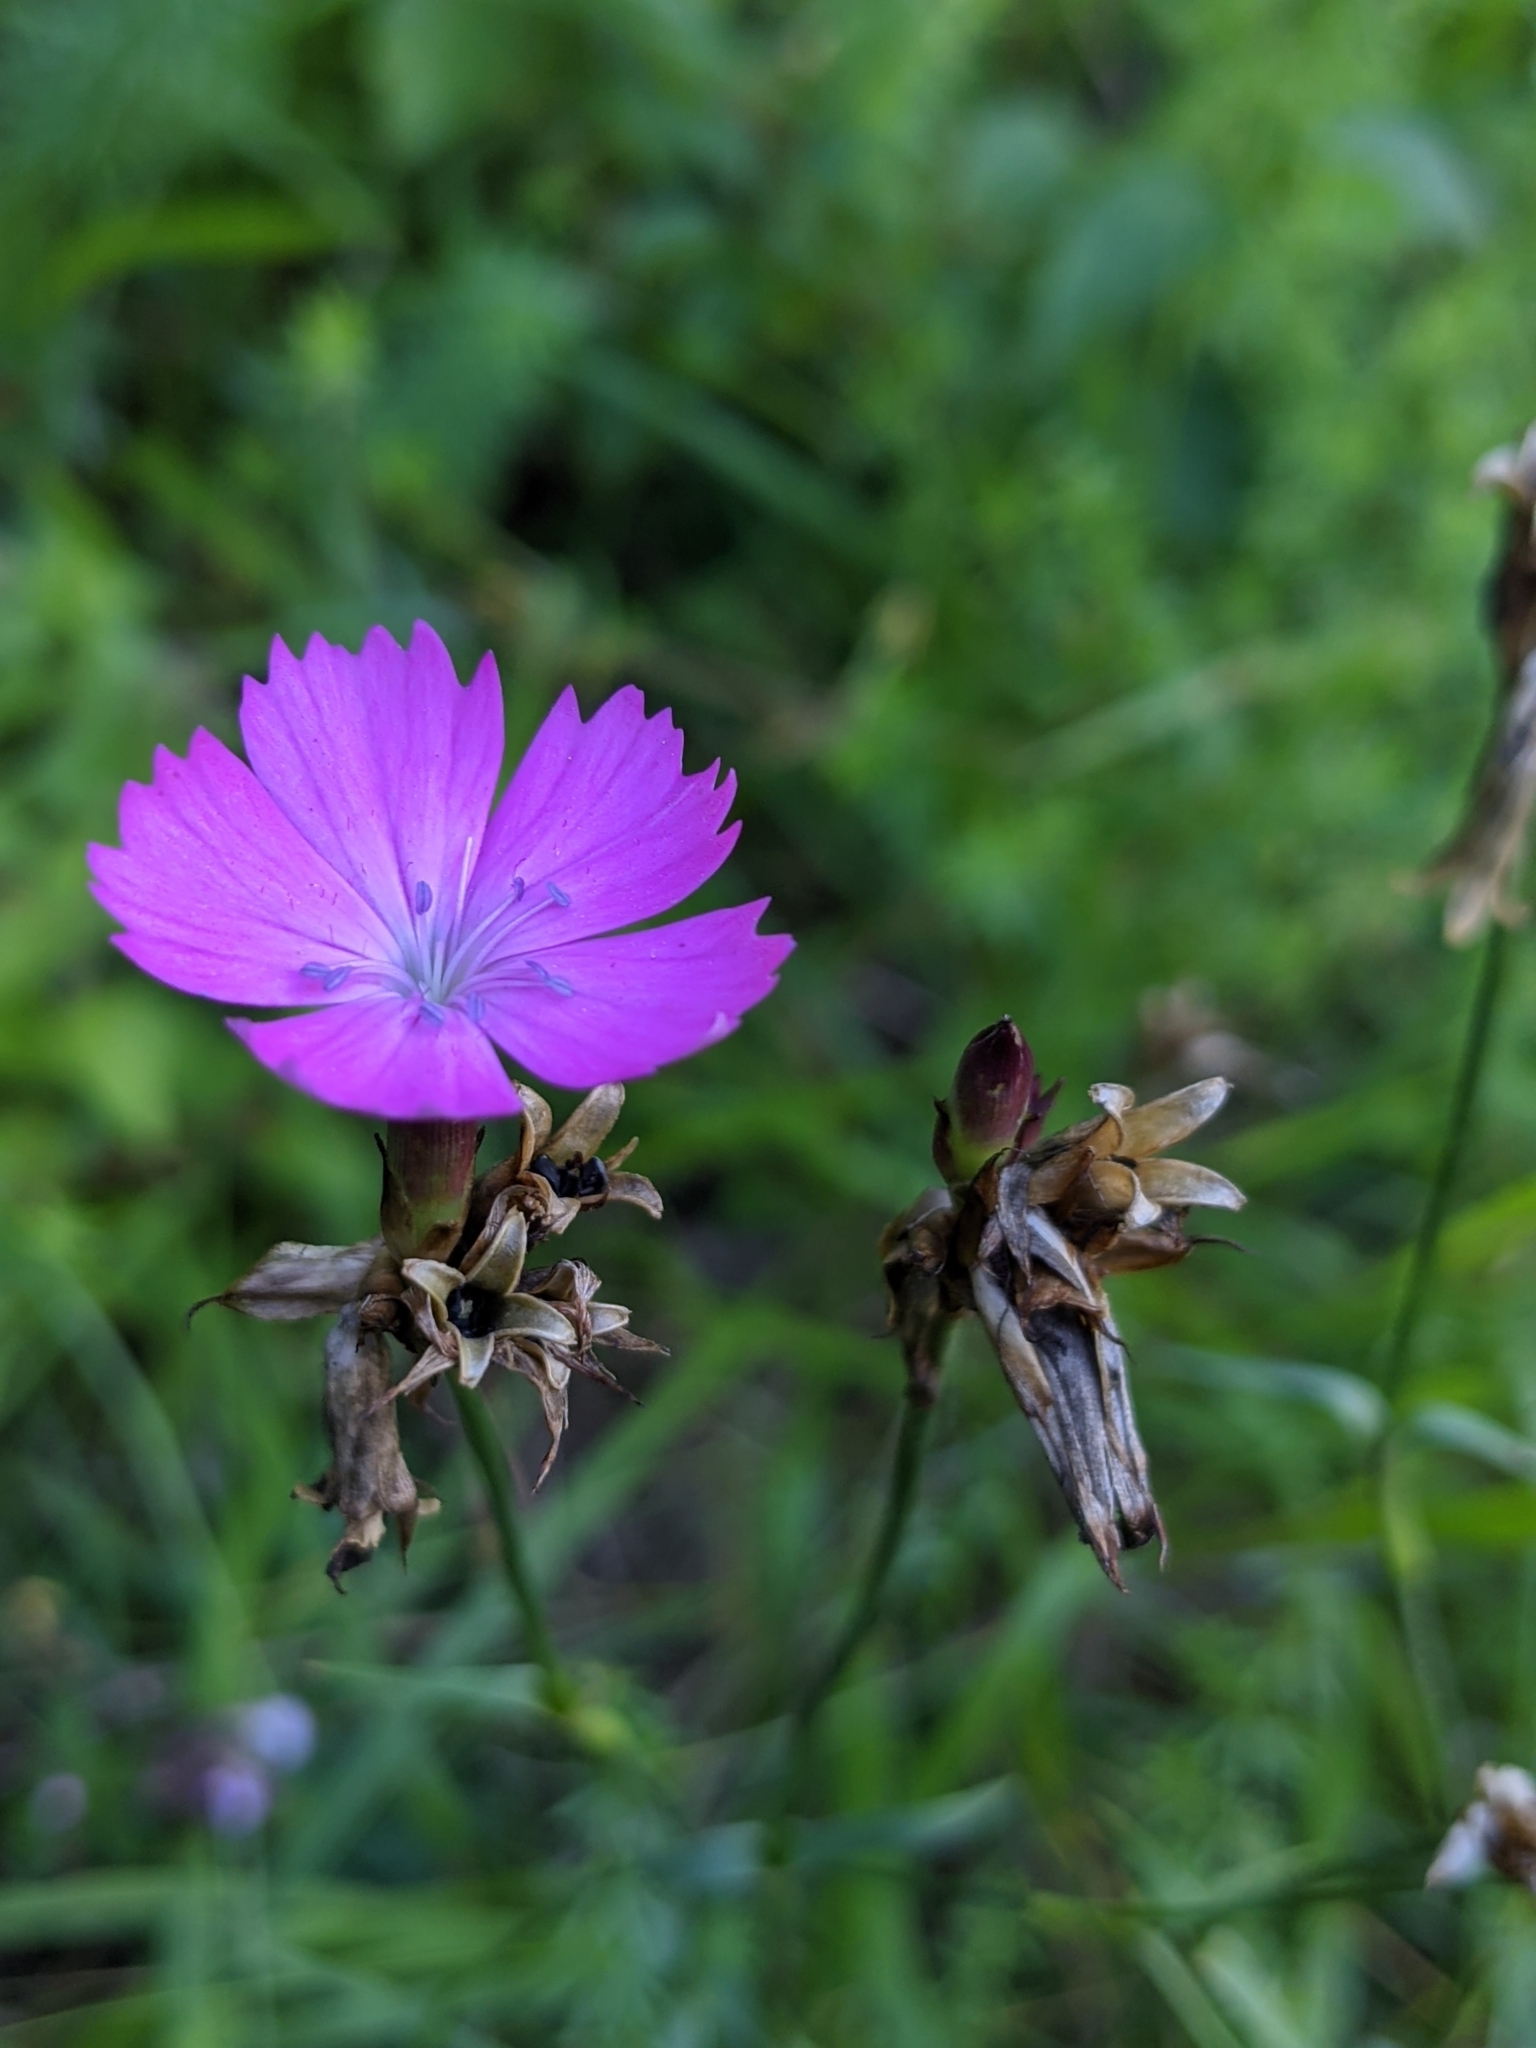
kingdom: Plantae
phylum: Tracheophyta
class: Magnoliopsida
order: Caryophyllales
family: Caryophyllaceae
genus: Dianthus
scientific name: Dianthus carthusianorum
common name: Carthusian pink
